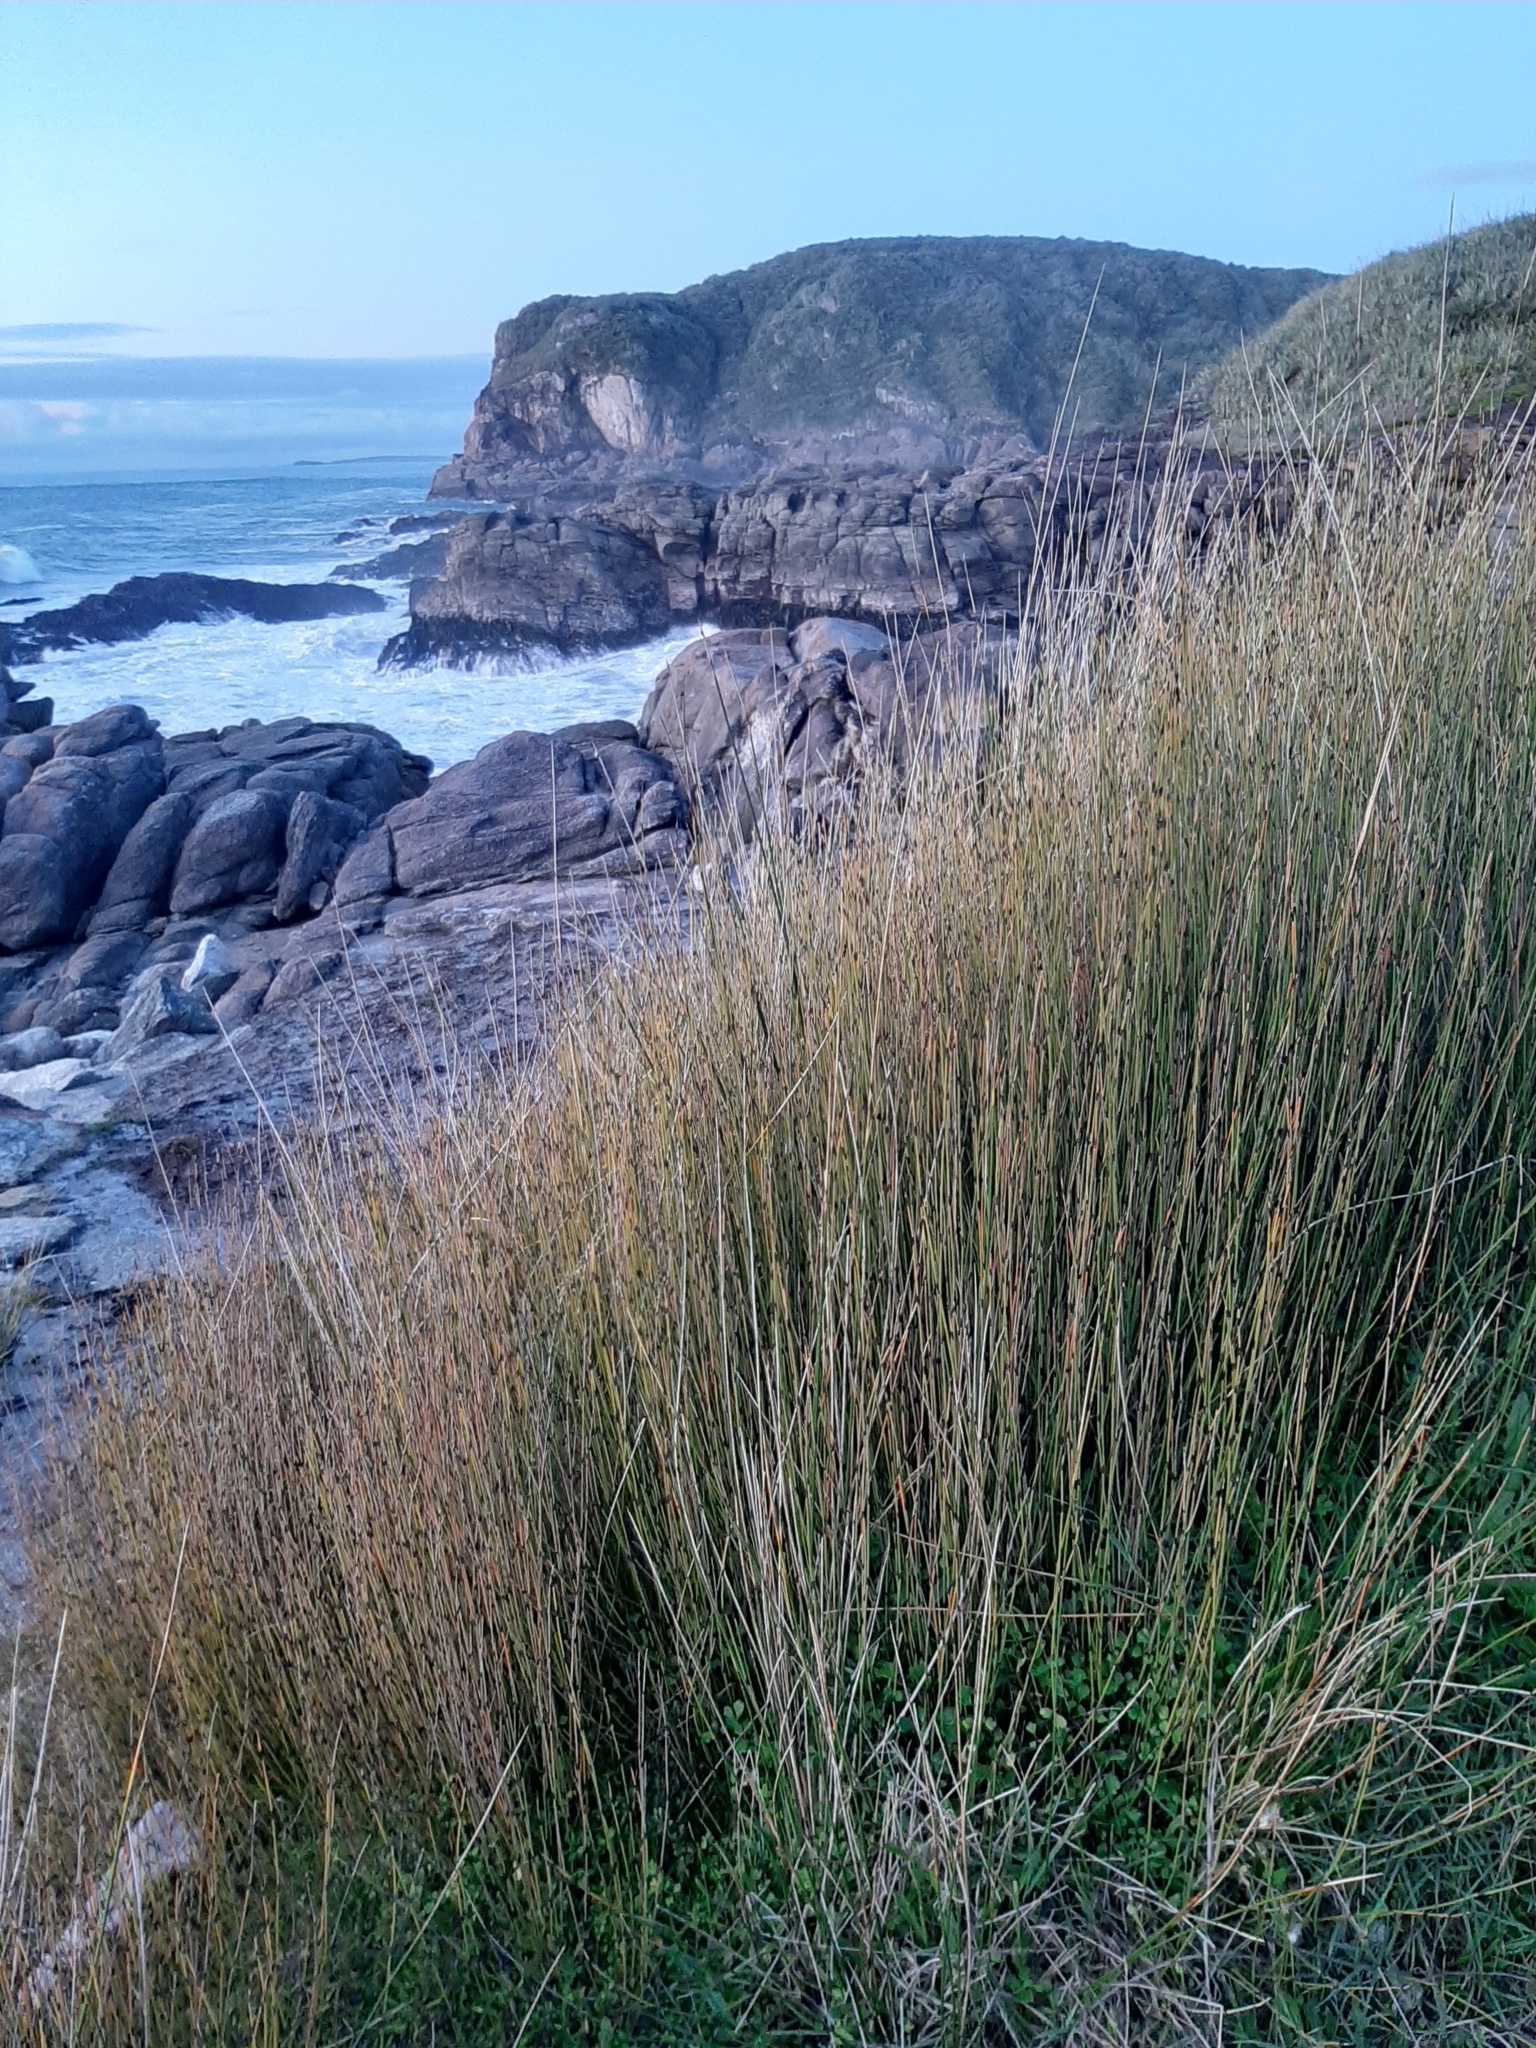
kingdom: Plantae
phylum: Tracheophyta
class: Liliopsida
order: Poales
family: Restionaceae
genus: Apodasmia
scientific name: Apodasmia similis
